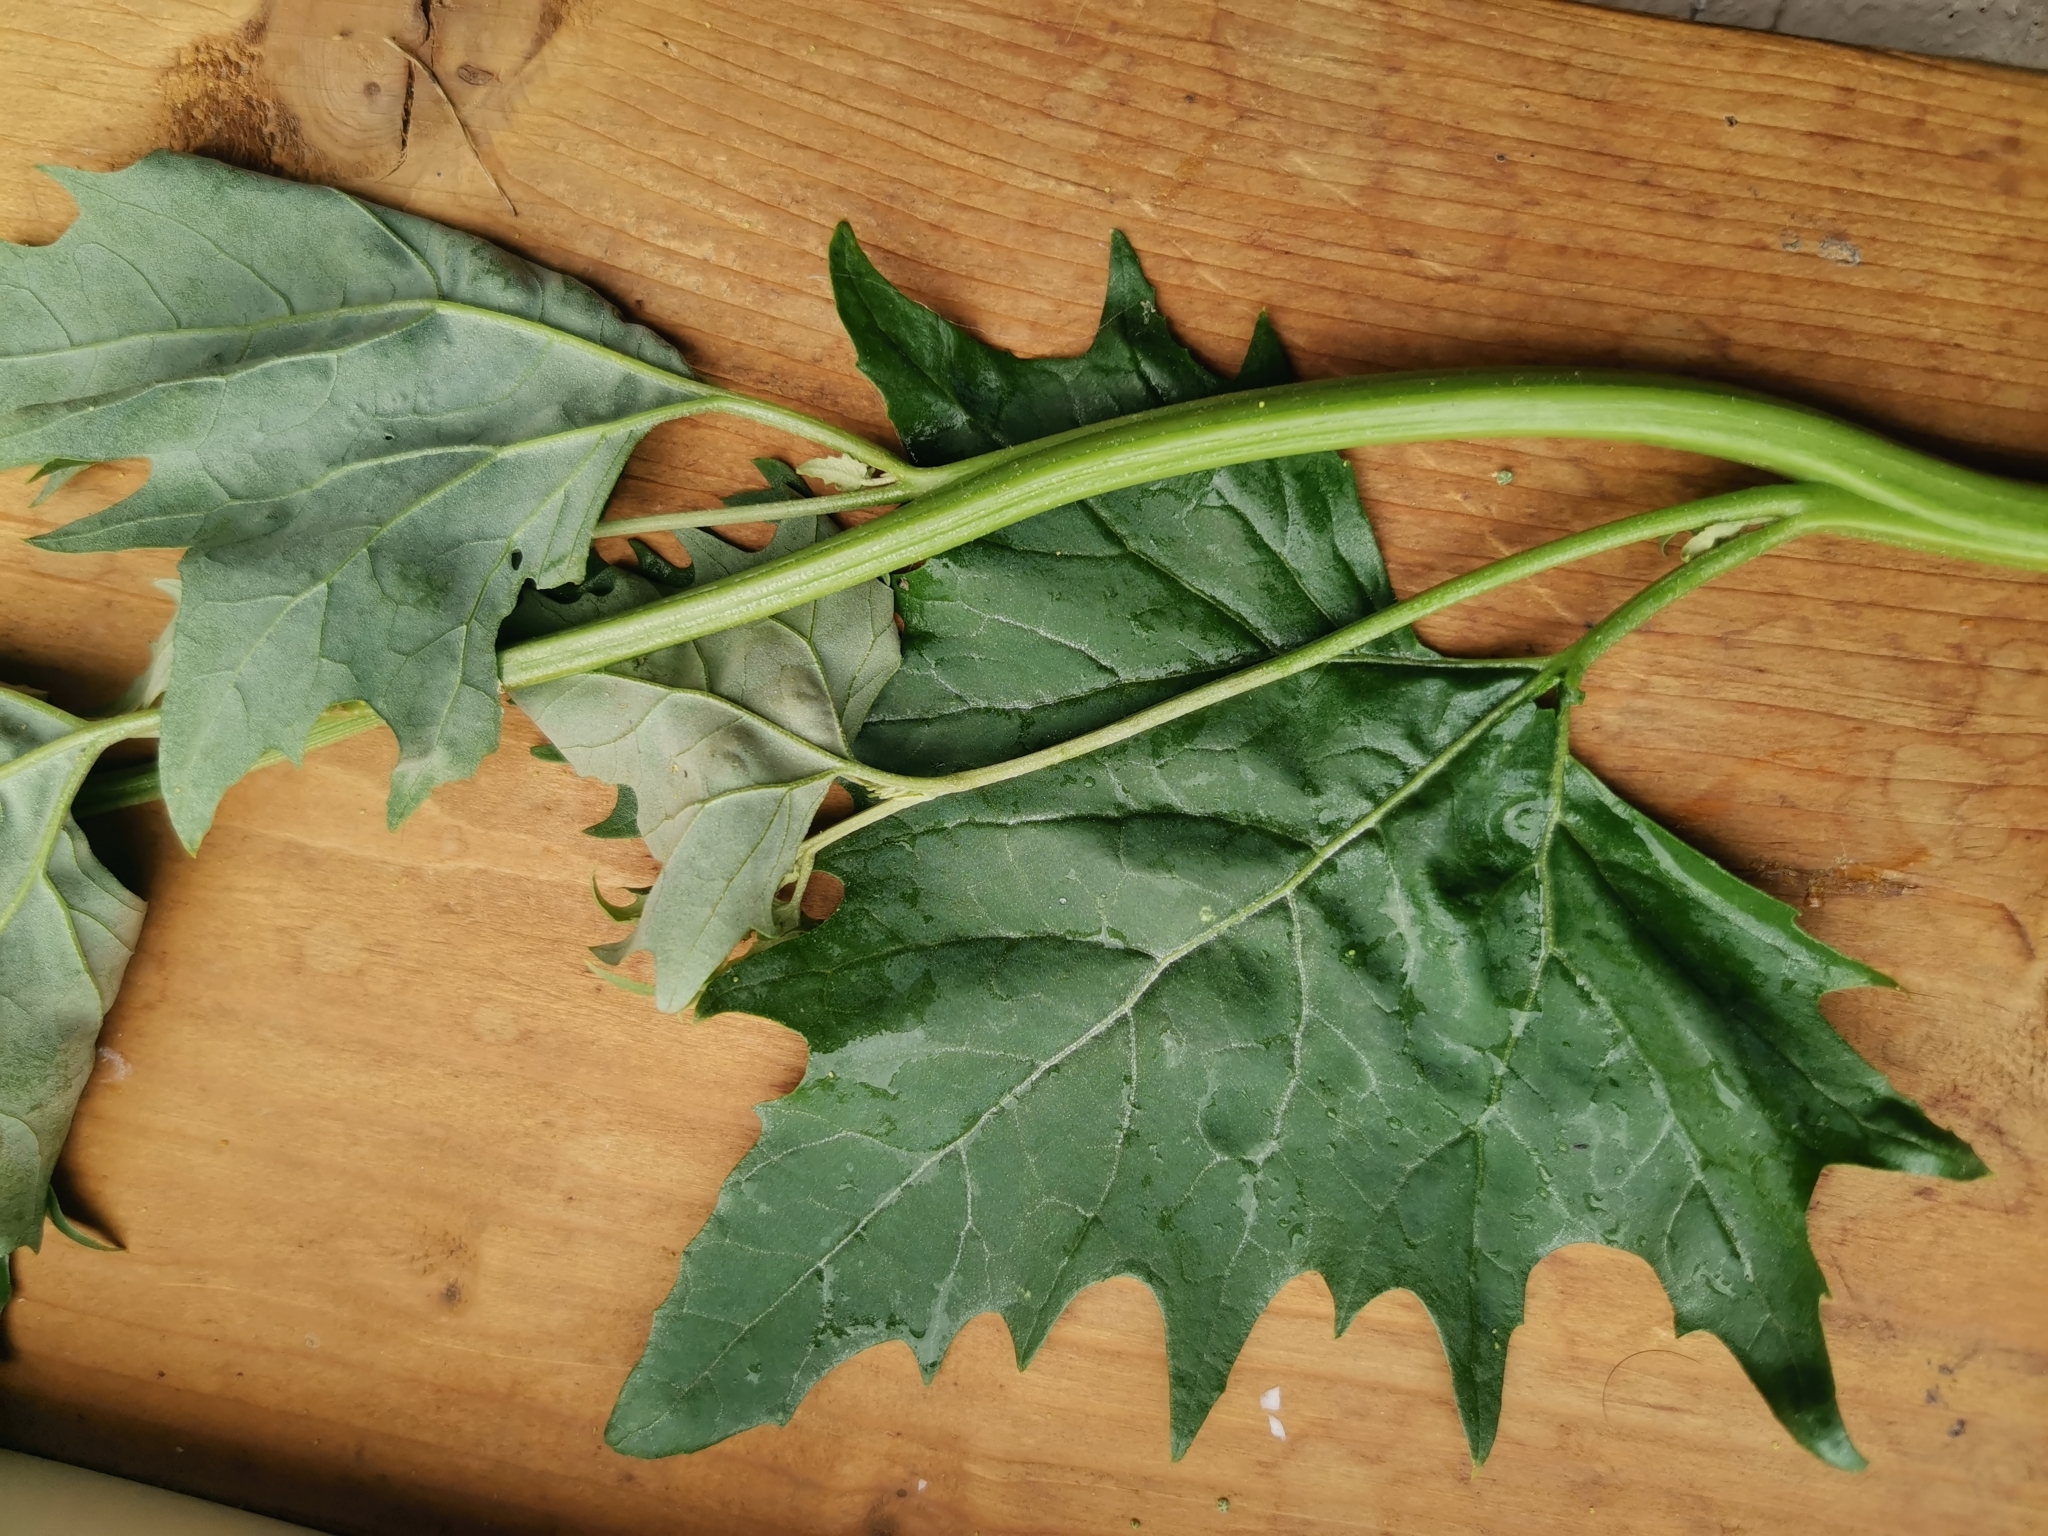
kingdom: Plantae
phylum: Tracheophyta
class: Magnoliopsida
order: Caryophyllales
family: Amaranthaceae
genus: Atriplex
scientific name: Atriplex sagittata
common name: Purple orache
